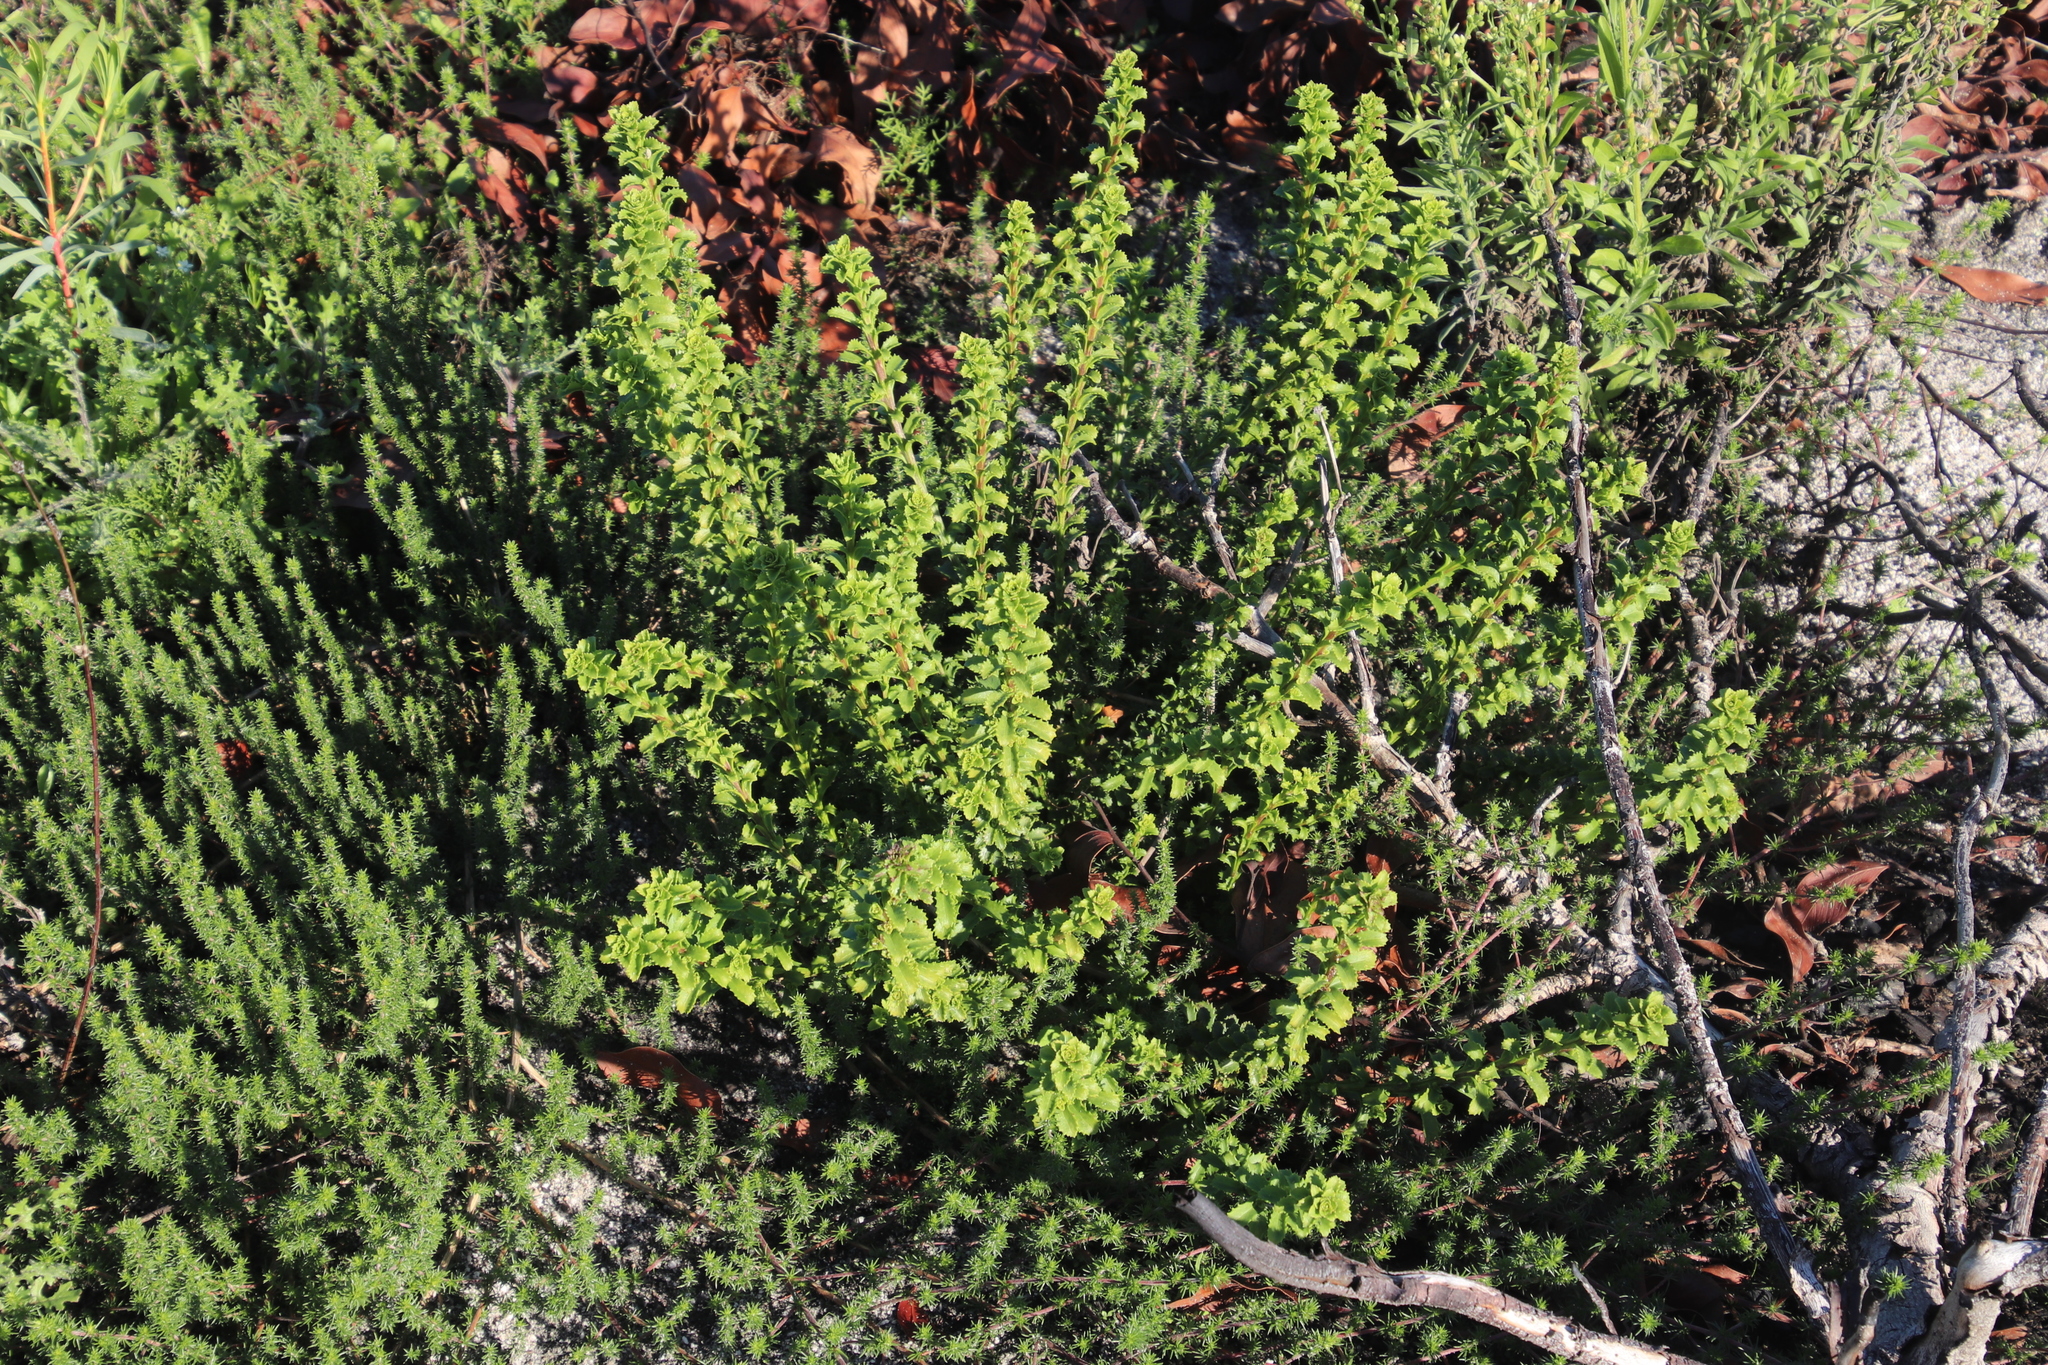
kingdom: Plantae
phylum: Tracheophyta
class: Magnoliopsida
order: Lamiales
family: Scrophulariaceae
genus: Pseudoselago
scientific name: Pseudoselago serrata
